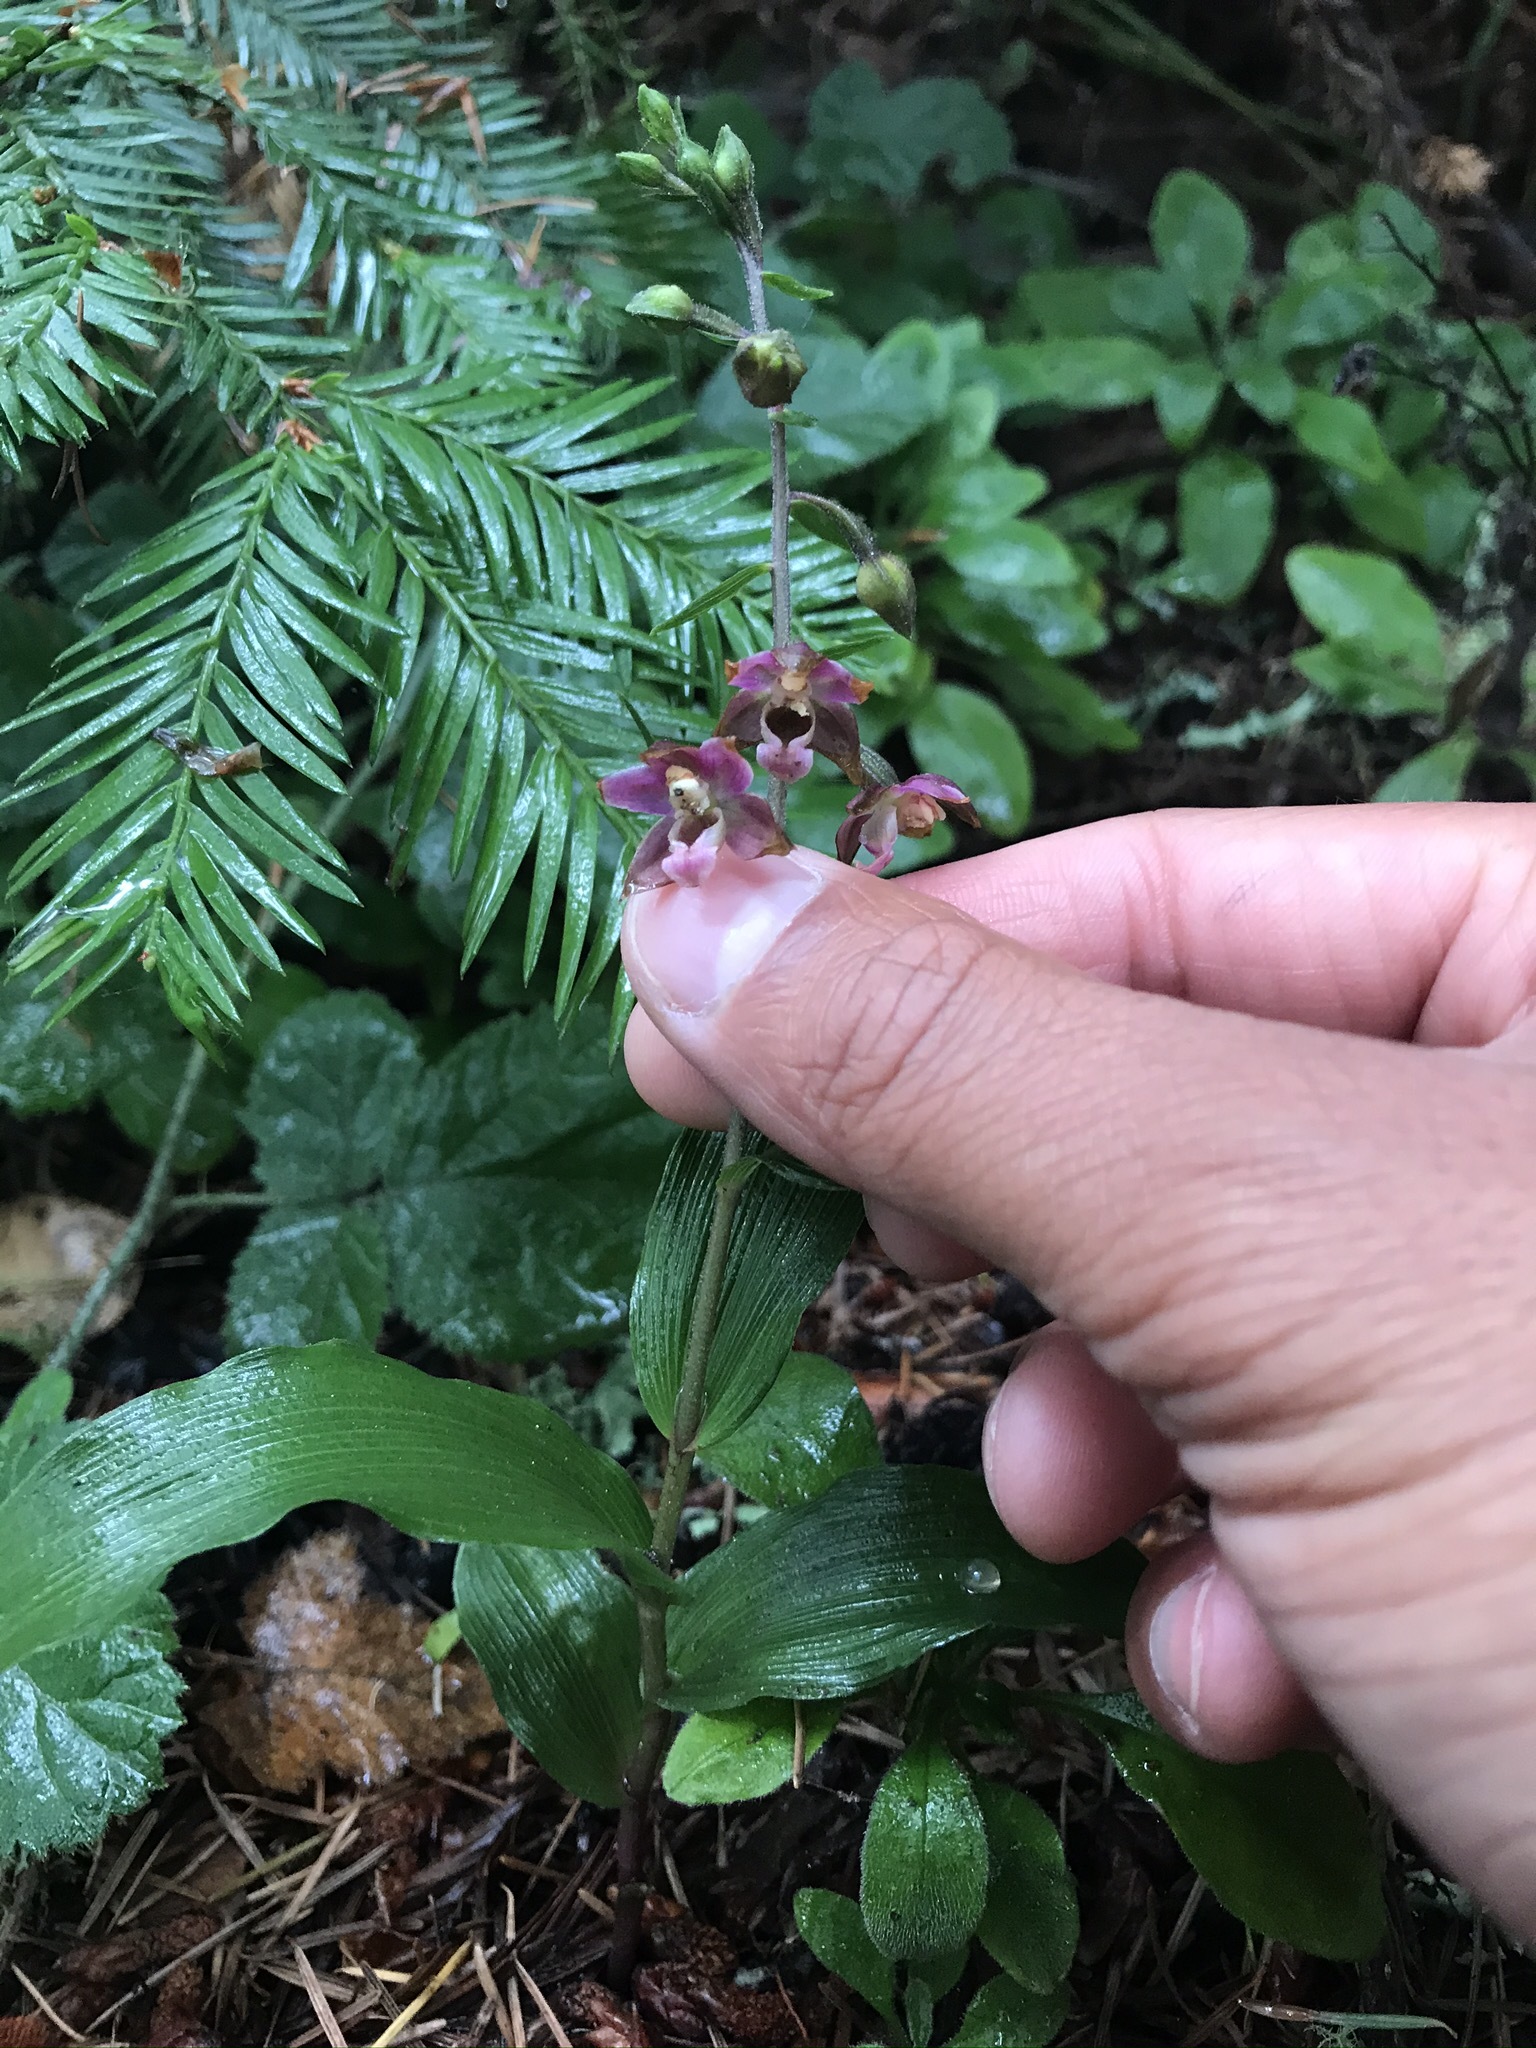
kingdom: Plantae
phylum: Tracheophyta
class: Liliopsida
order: Asparagales
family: Orchidaceae
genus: Epipactis
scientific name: Epipactis helleborine
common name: Broad-leaved helleborine
